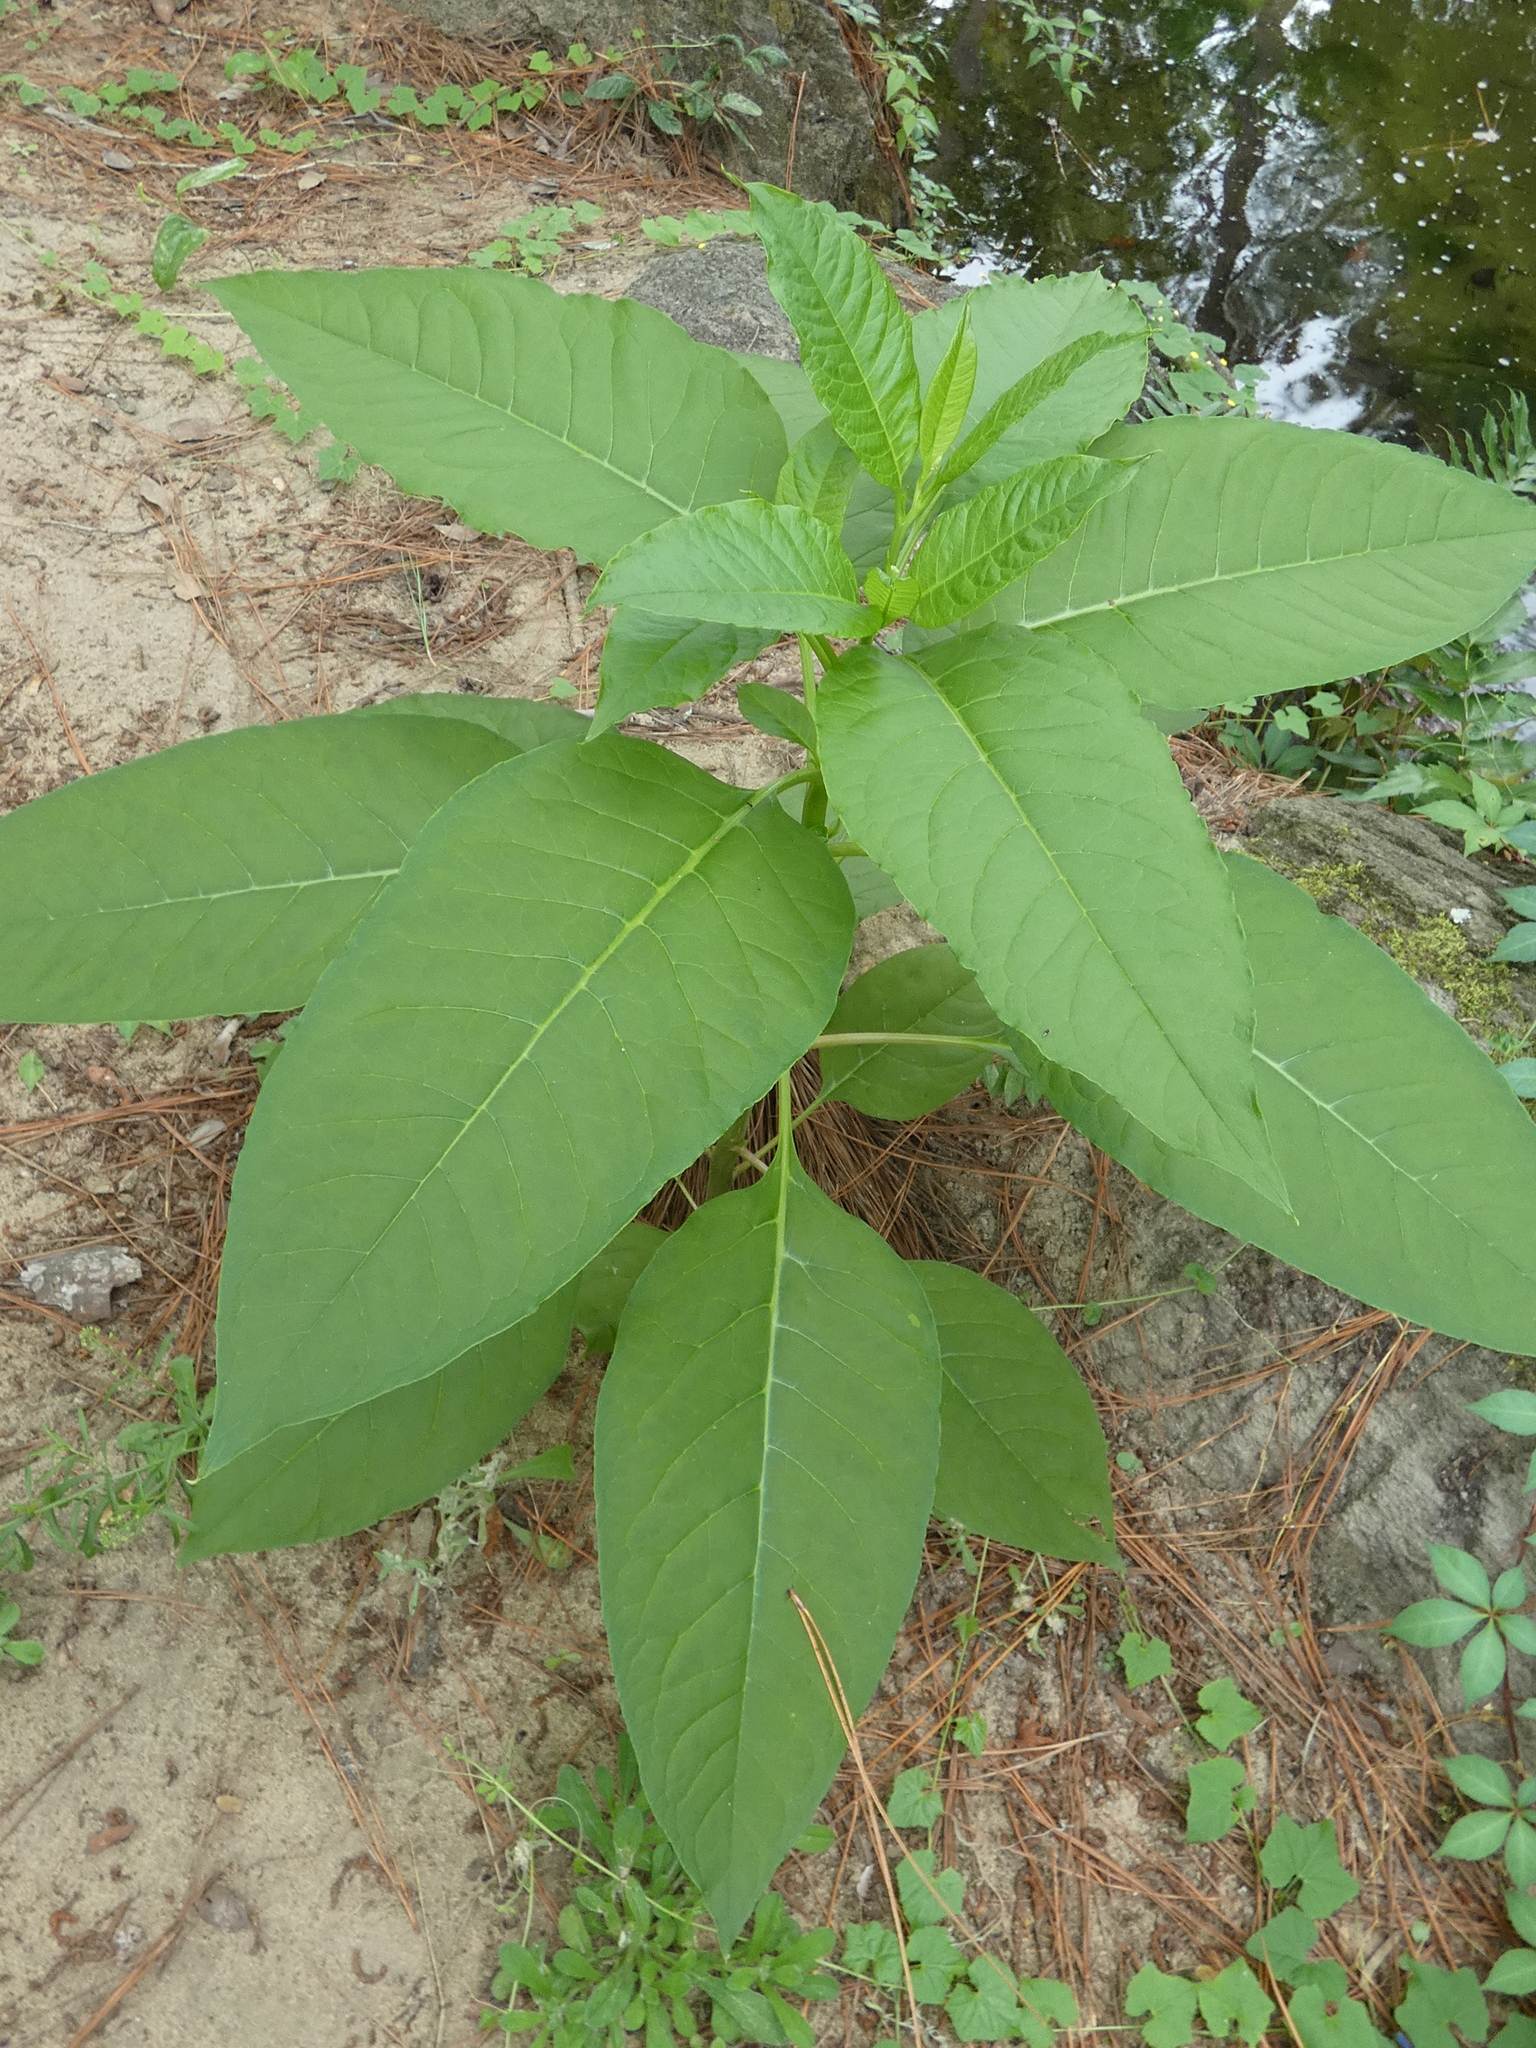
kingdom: Plantae
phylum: Tracheophyta
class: Magnoliopsida
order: Caryophyllales
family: Phytolaccaceae
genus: Phytolacca
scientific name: Phytolacca americana
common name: American pokeweed
